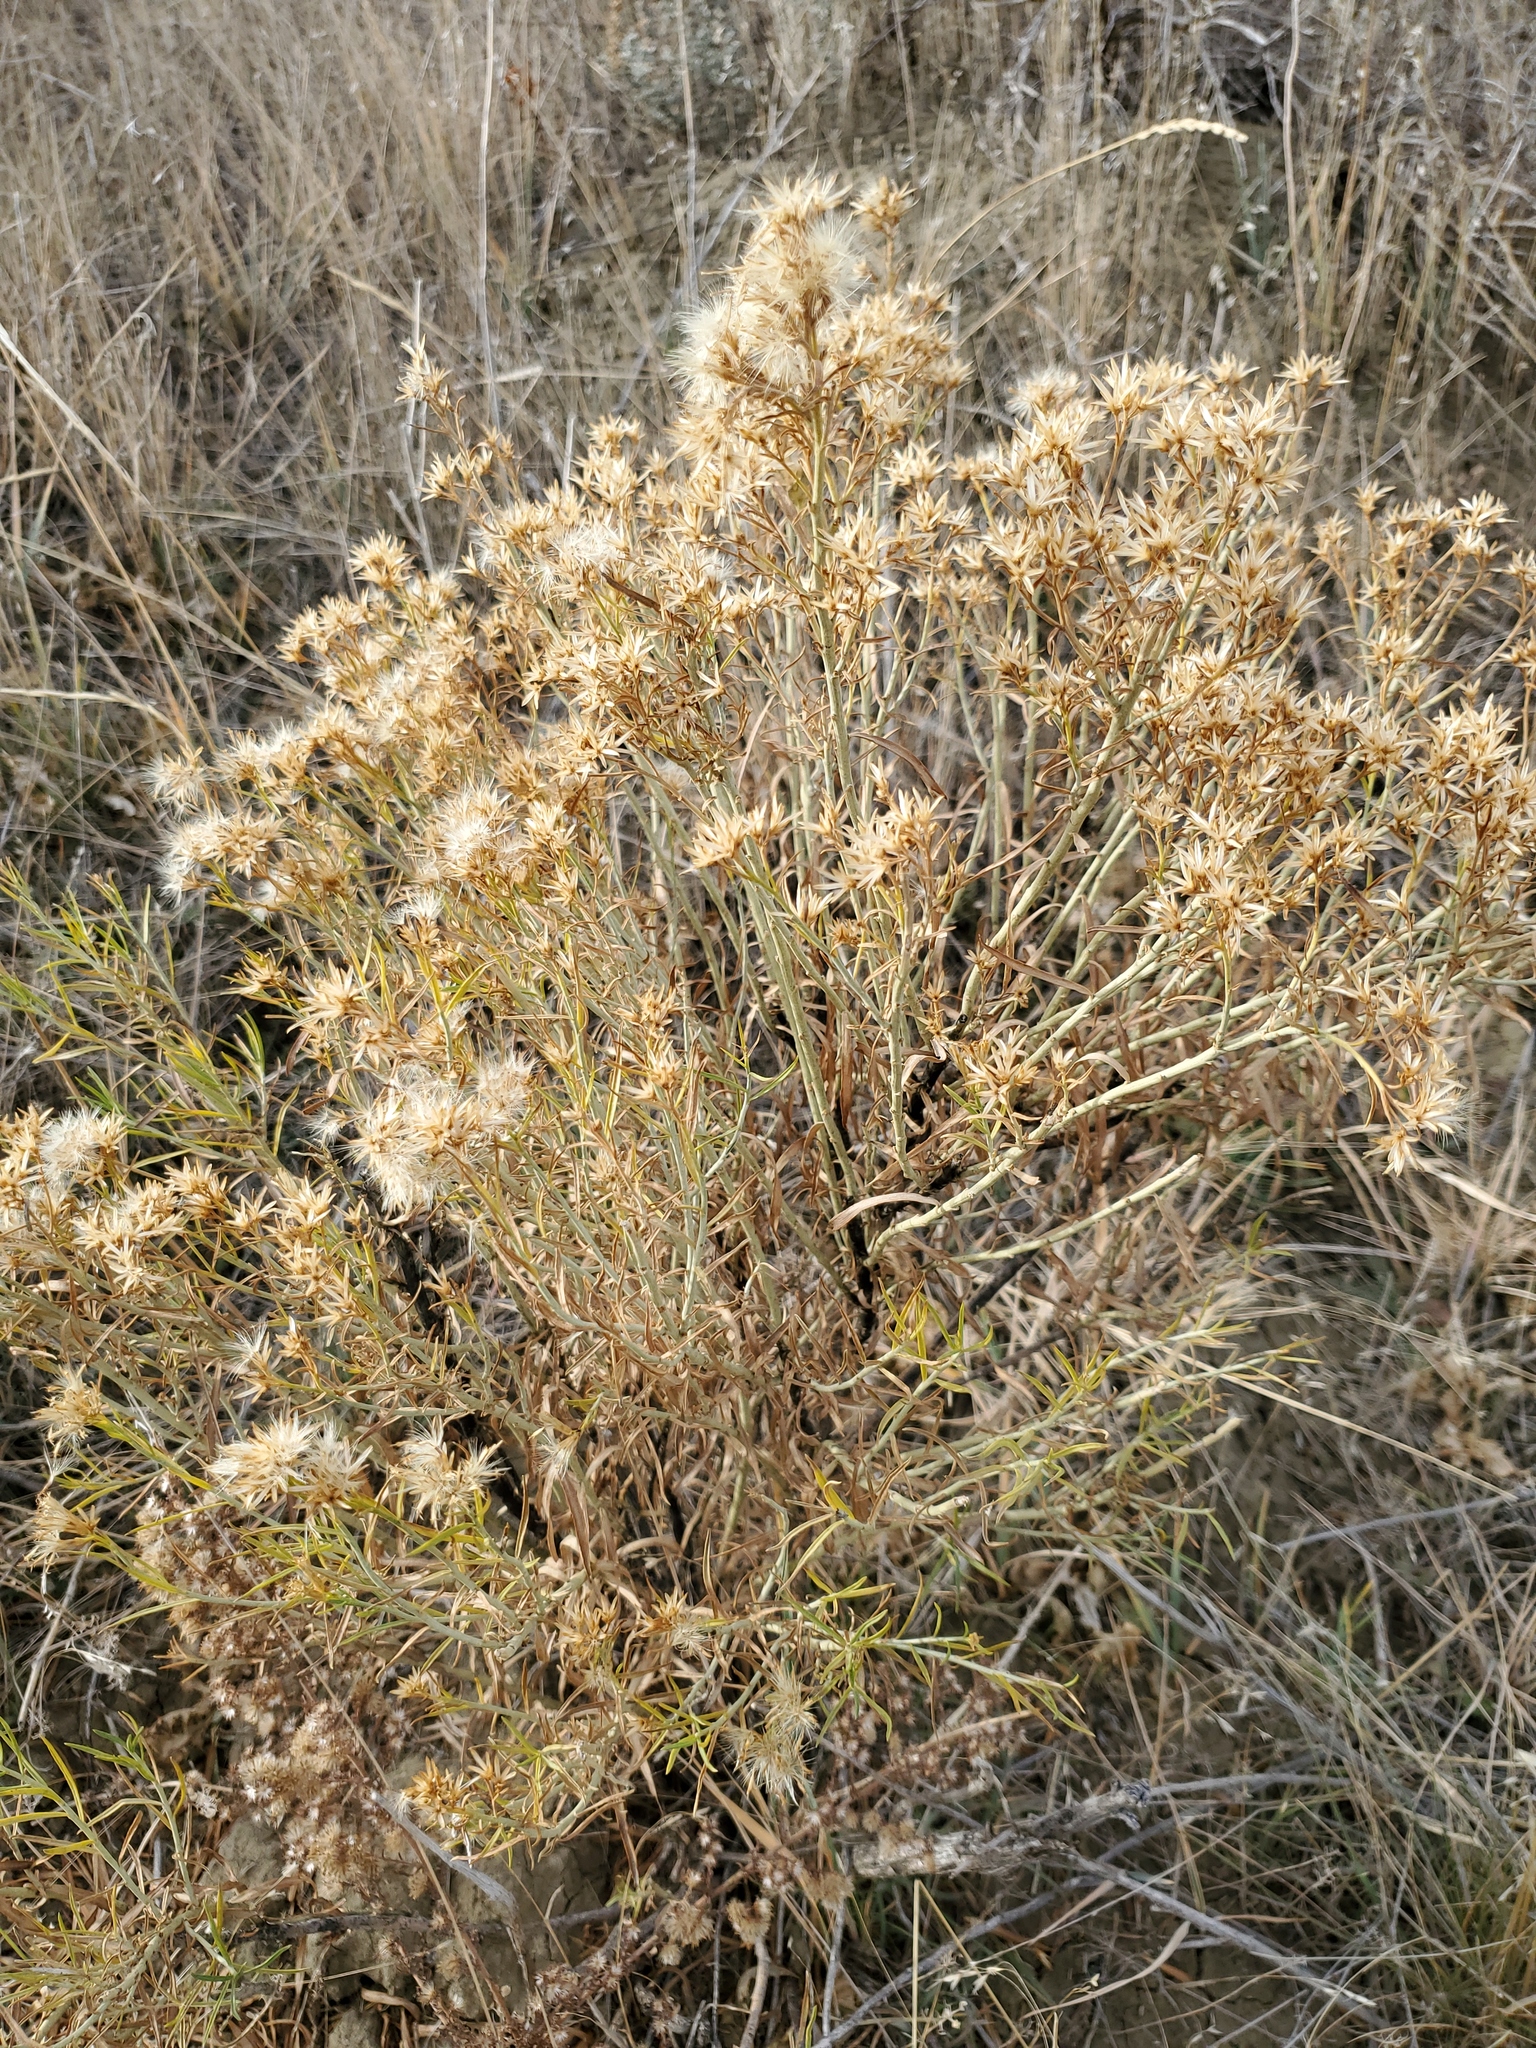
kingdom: Plantae
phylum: Tracheophyta
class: Magnoliopsida
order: Asterales
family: Asteraceae
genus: Ericameria
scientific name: Ericameria nauseosa
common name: Rubber rabbitbrush
